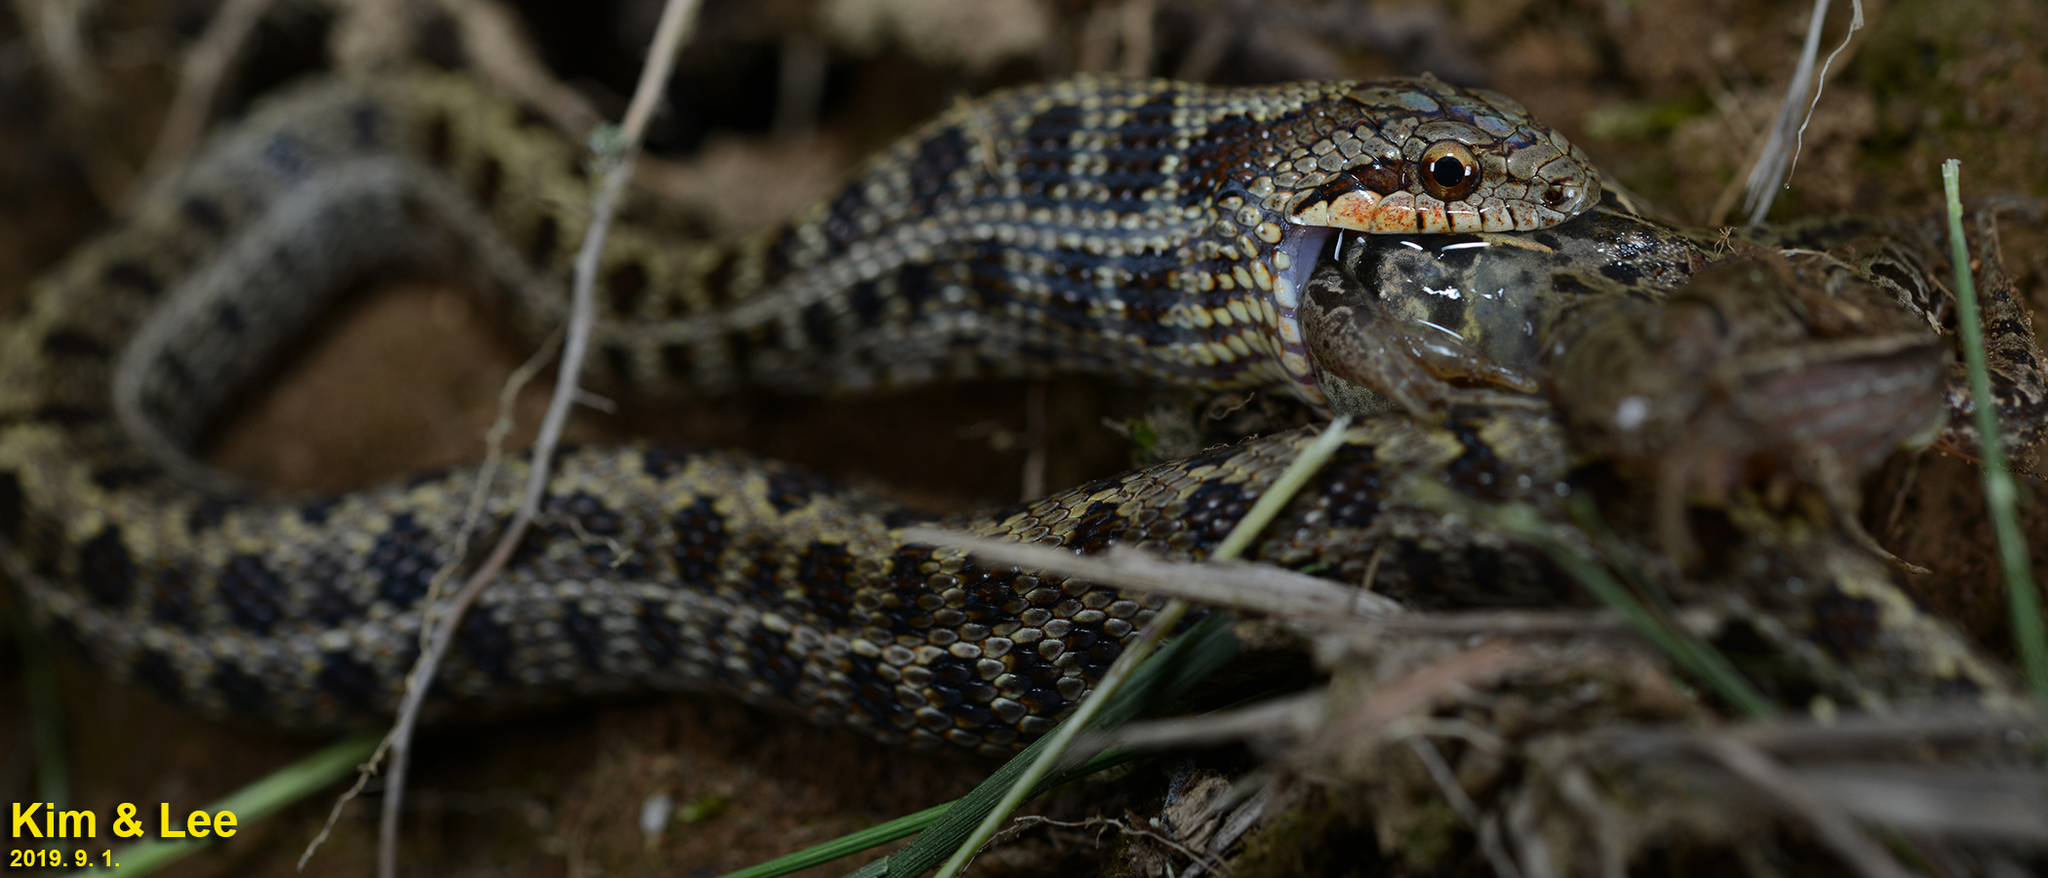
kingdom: Animalia
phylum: Chordata
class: Squamata
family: Colubridae
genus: Elaphe
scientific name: Elaphe dione
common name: Dione ratsnake
